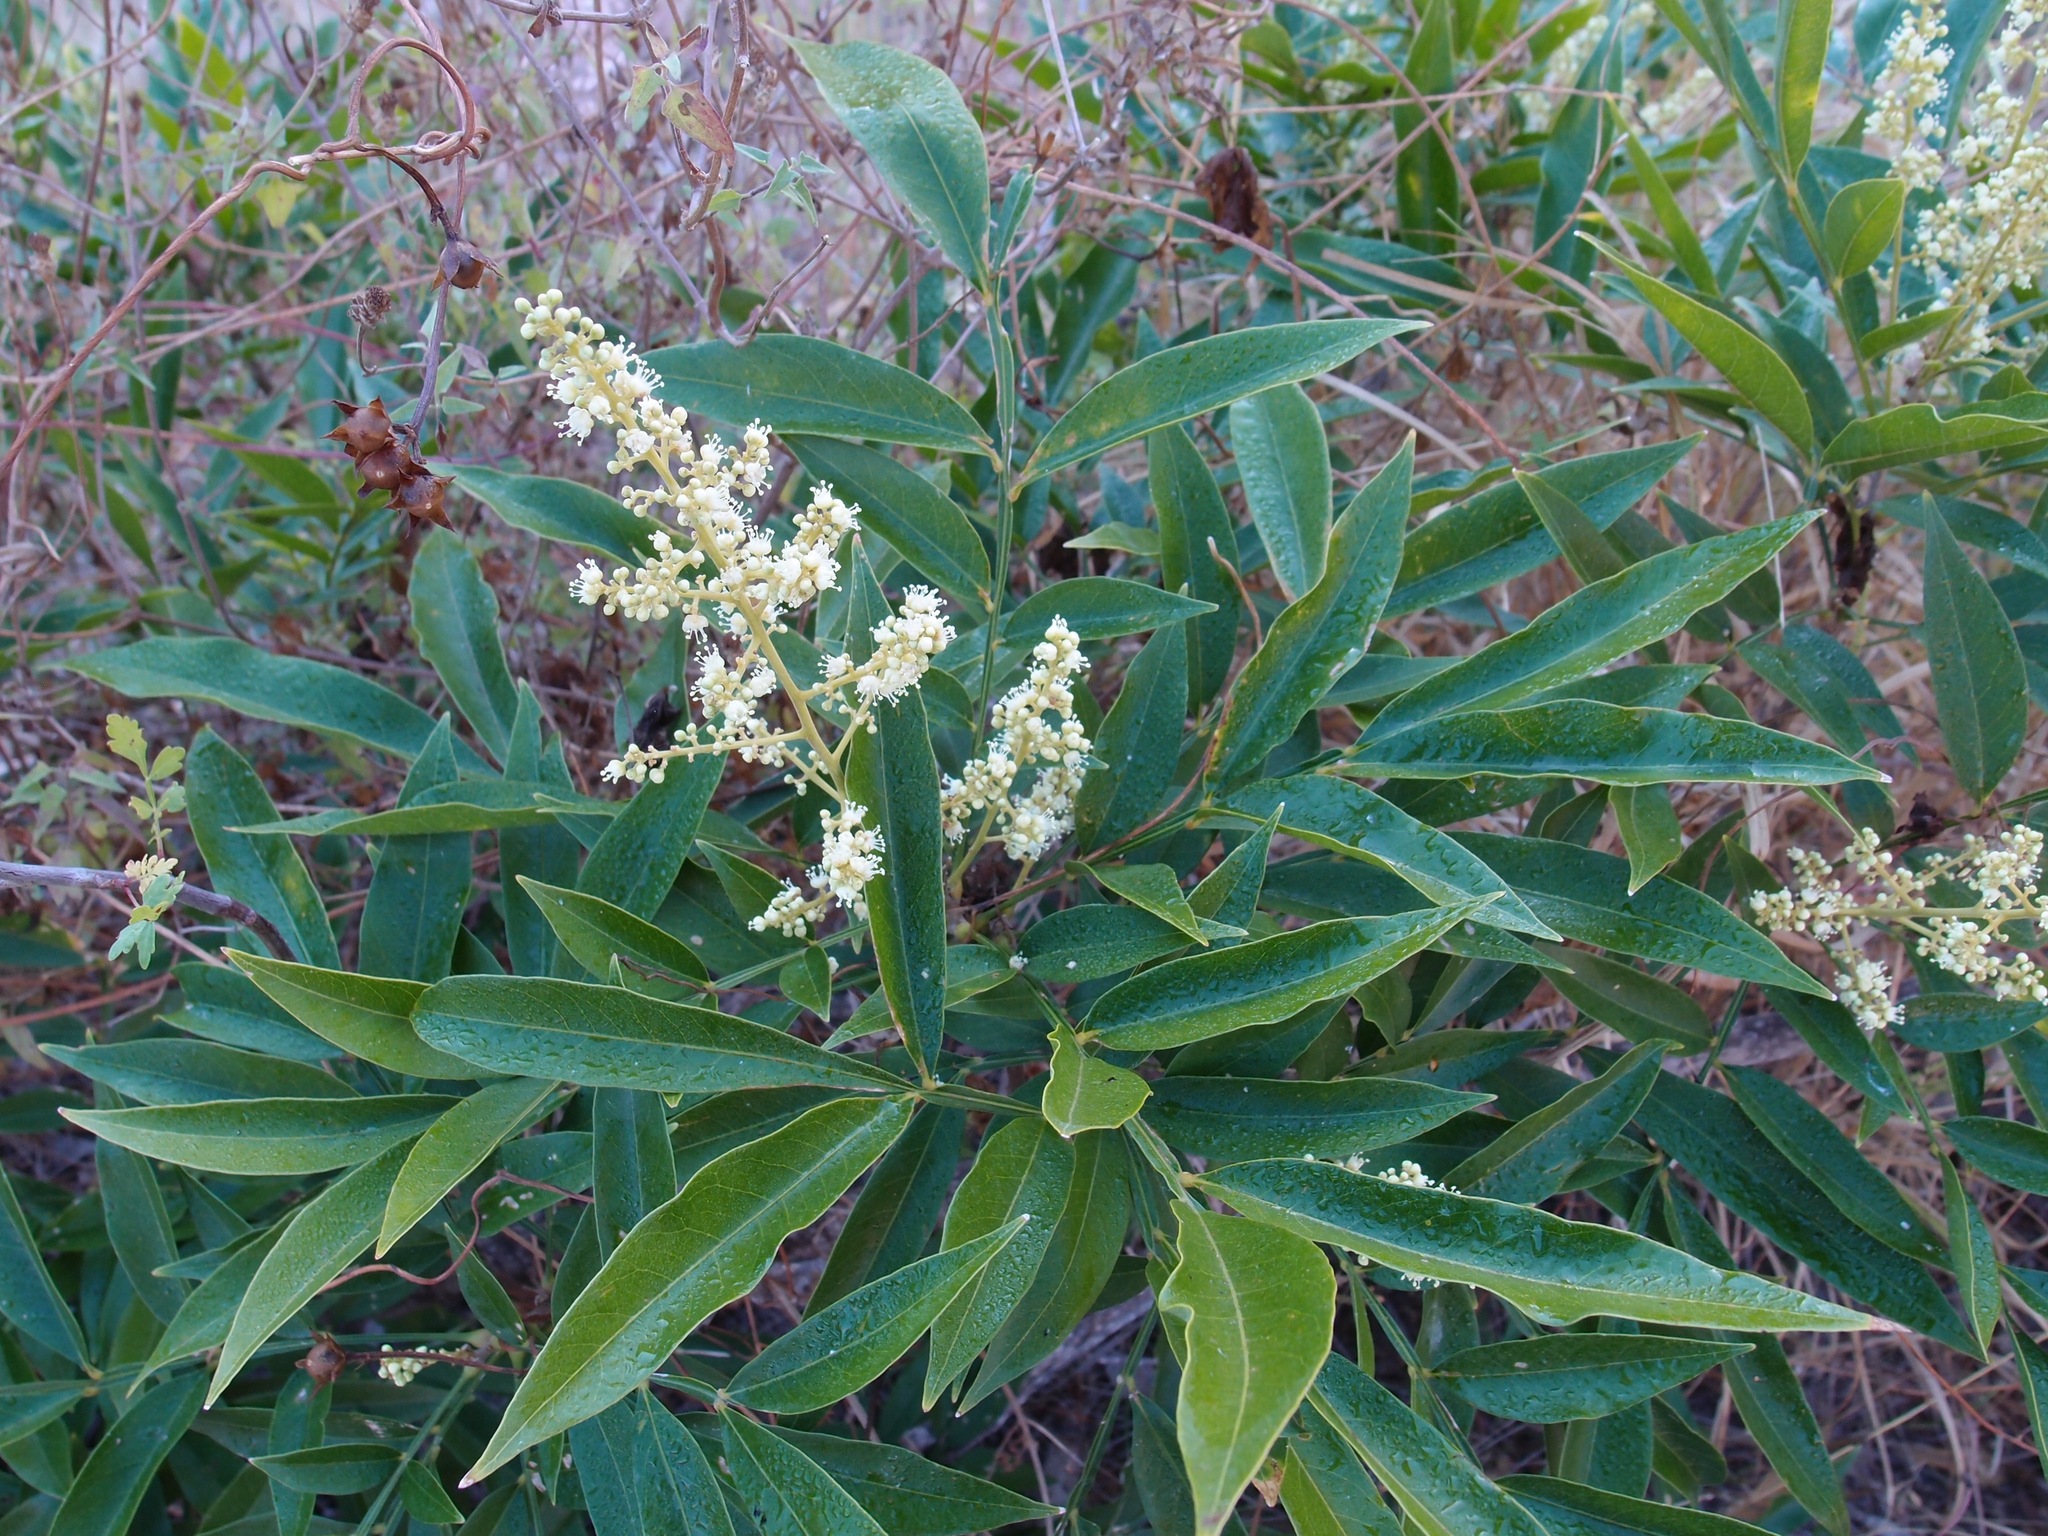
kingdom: Plantae
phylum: Tracheophyta
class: Magnoliopsida
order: Sapindales
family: Sapindaceae
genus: Sapindus
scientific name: Sapindus saponaria
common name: Wingleaf soapberry
